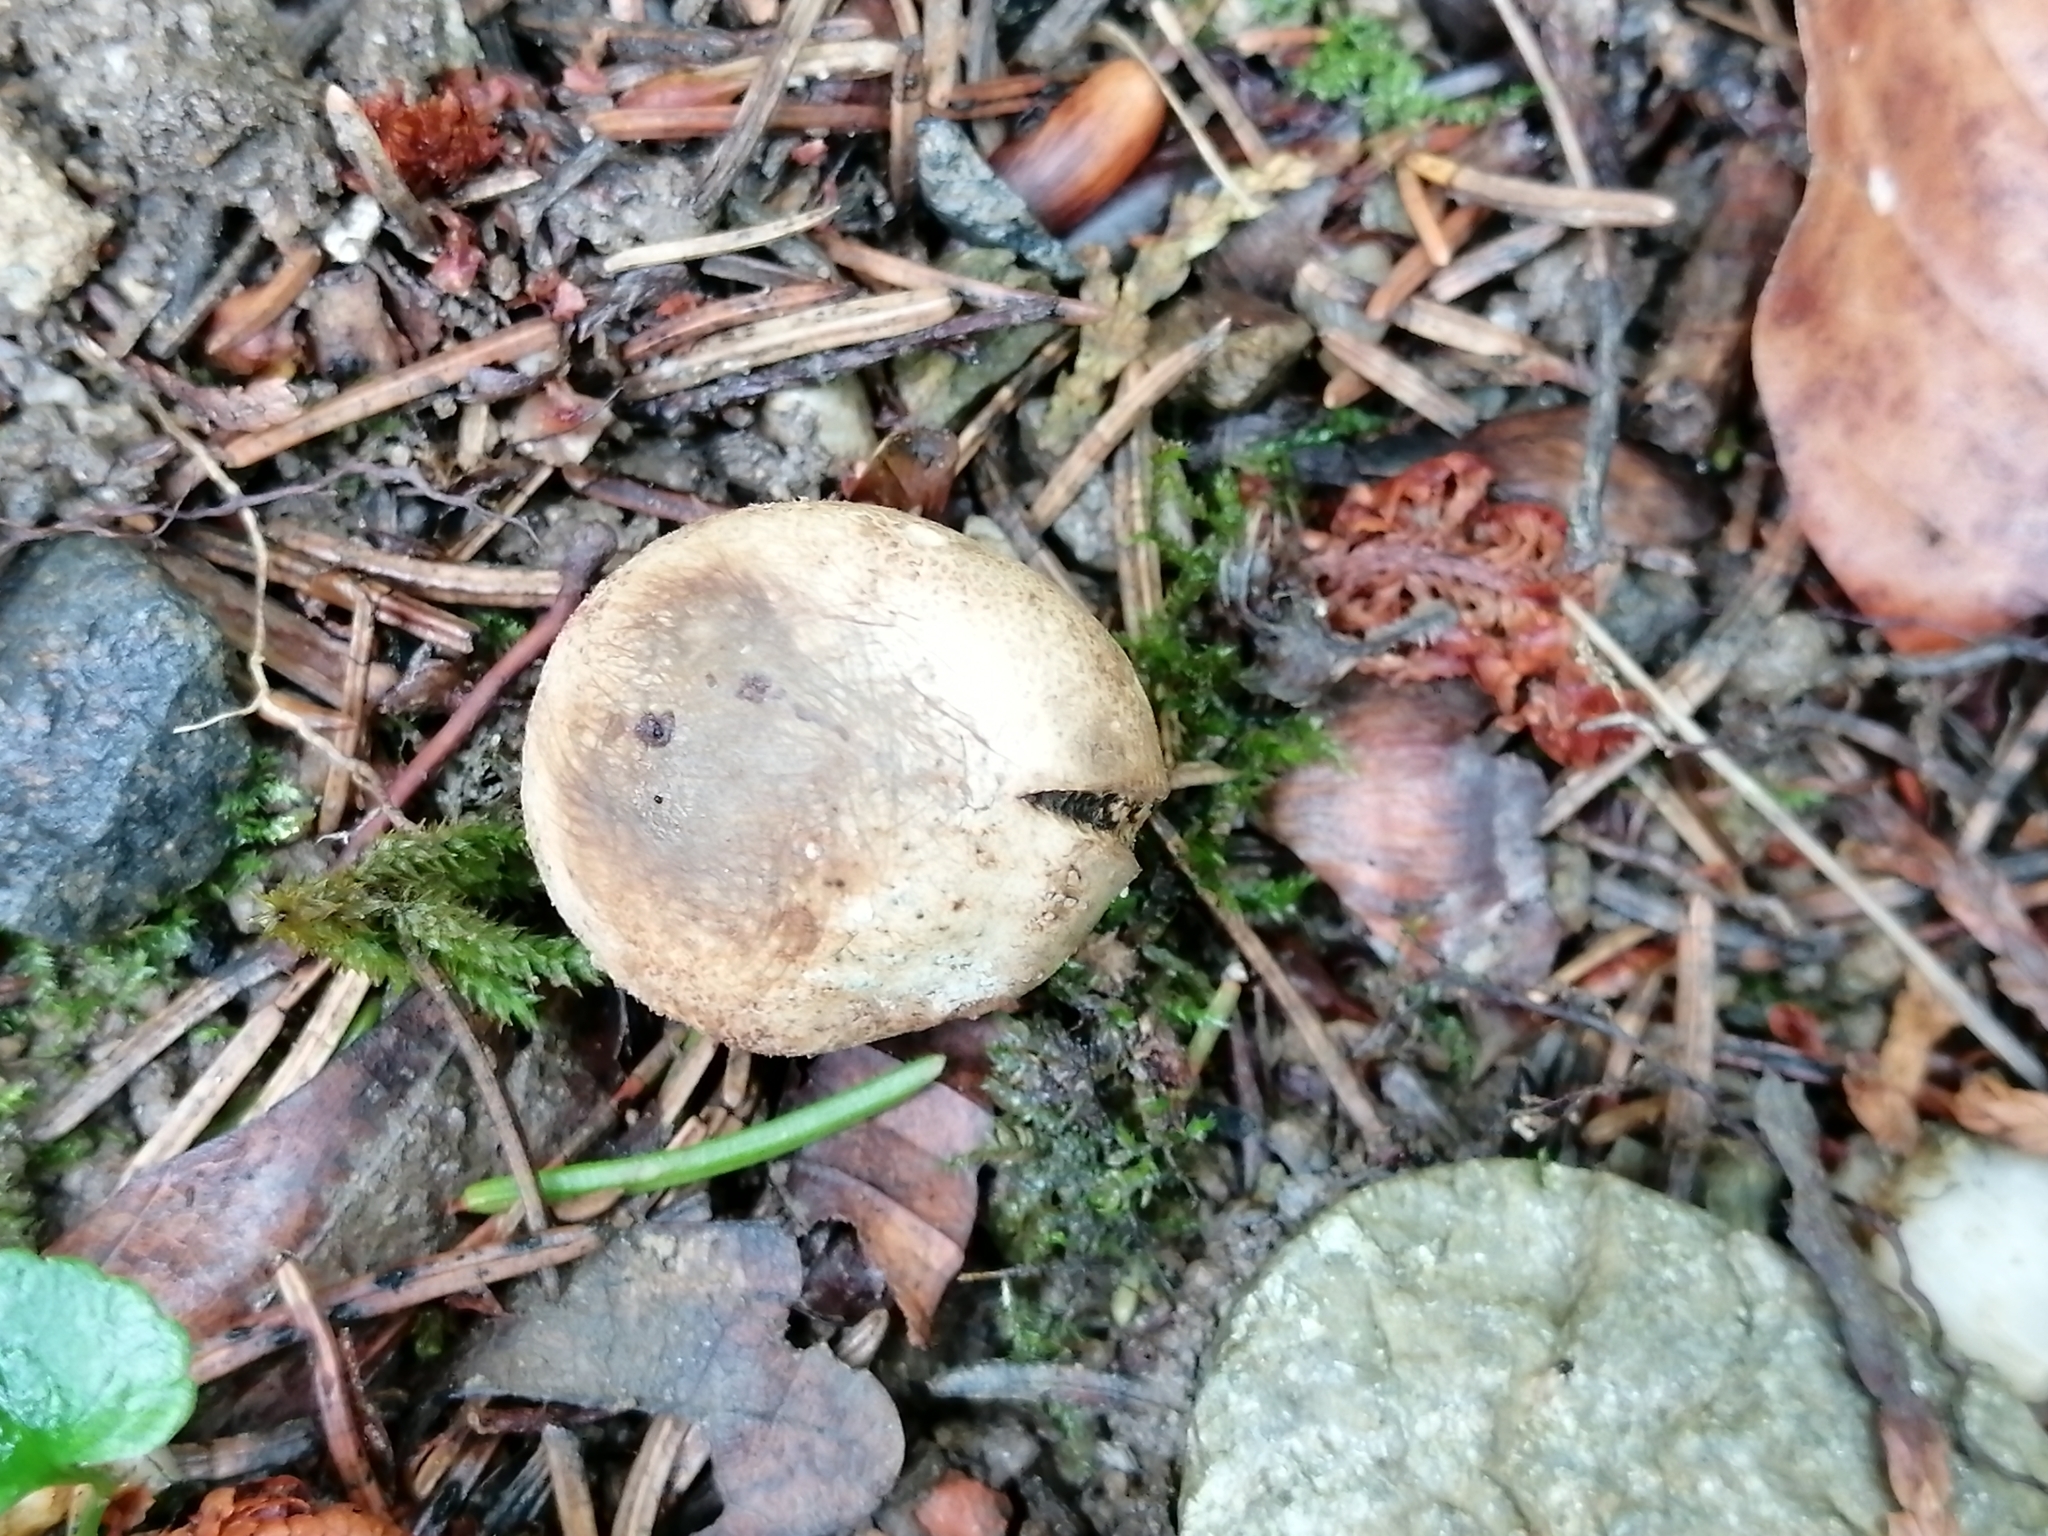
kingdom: Fungi
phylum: Basidiomycota
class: Agaricomycetes
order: Boletales
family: Sclerodermataceae
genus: Scleroderma
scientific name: Scleroderma areolatum
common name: Leopard earthball
